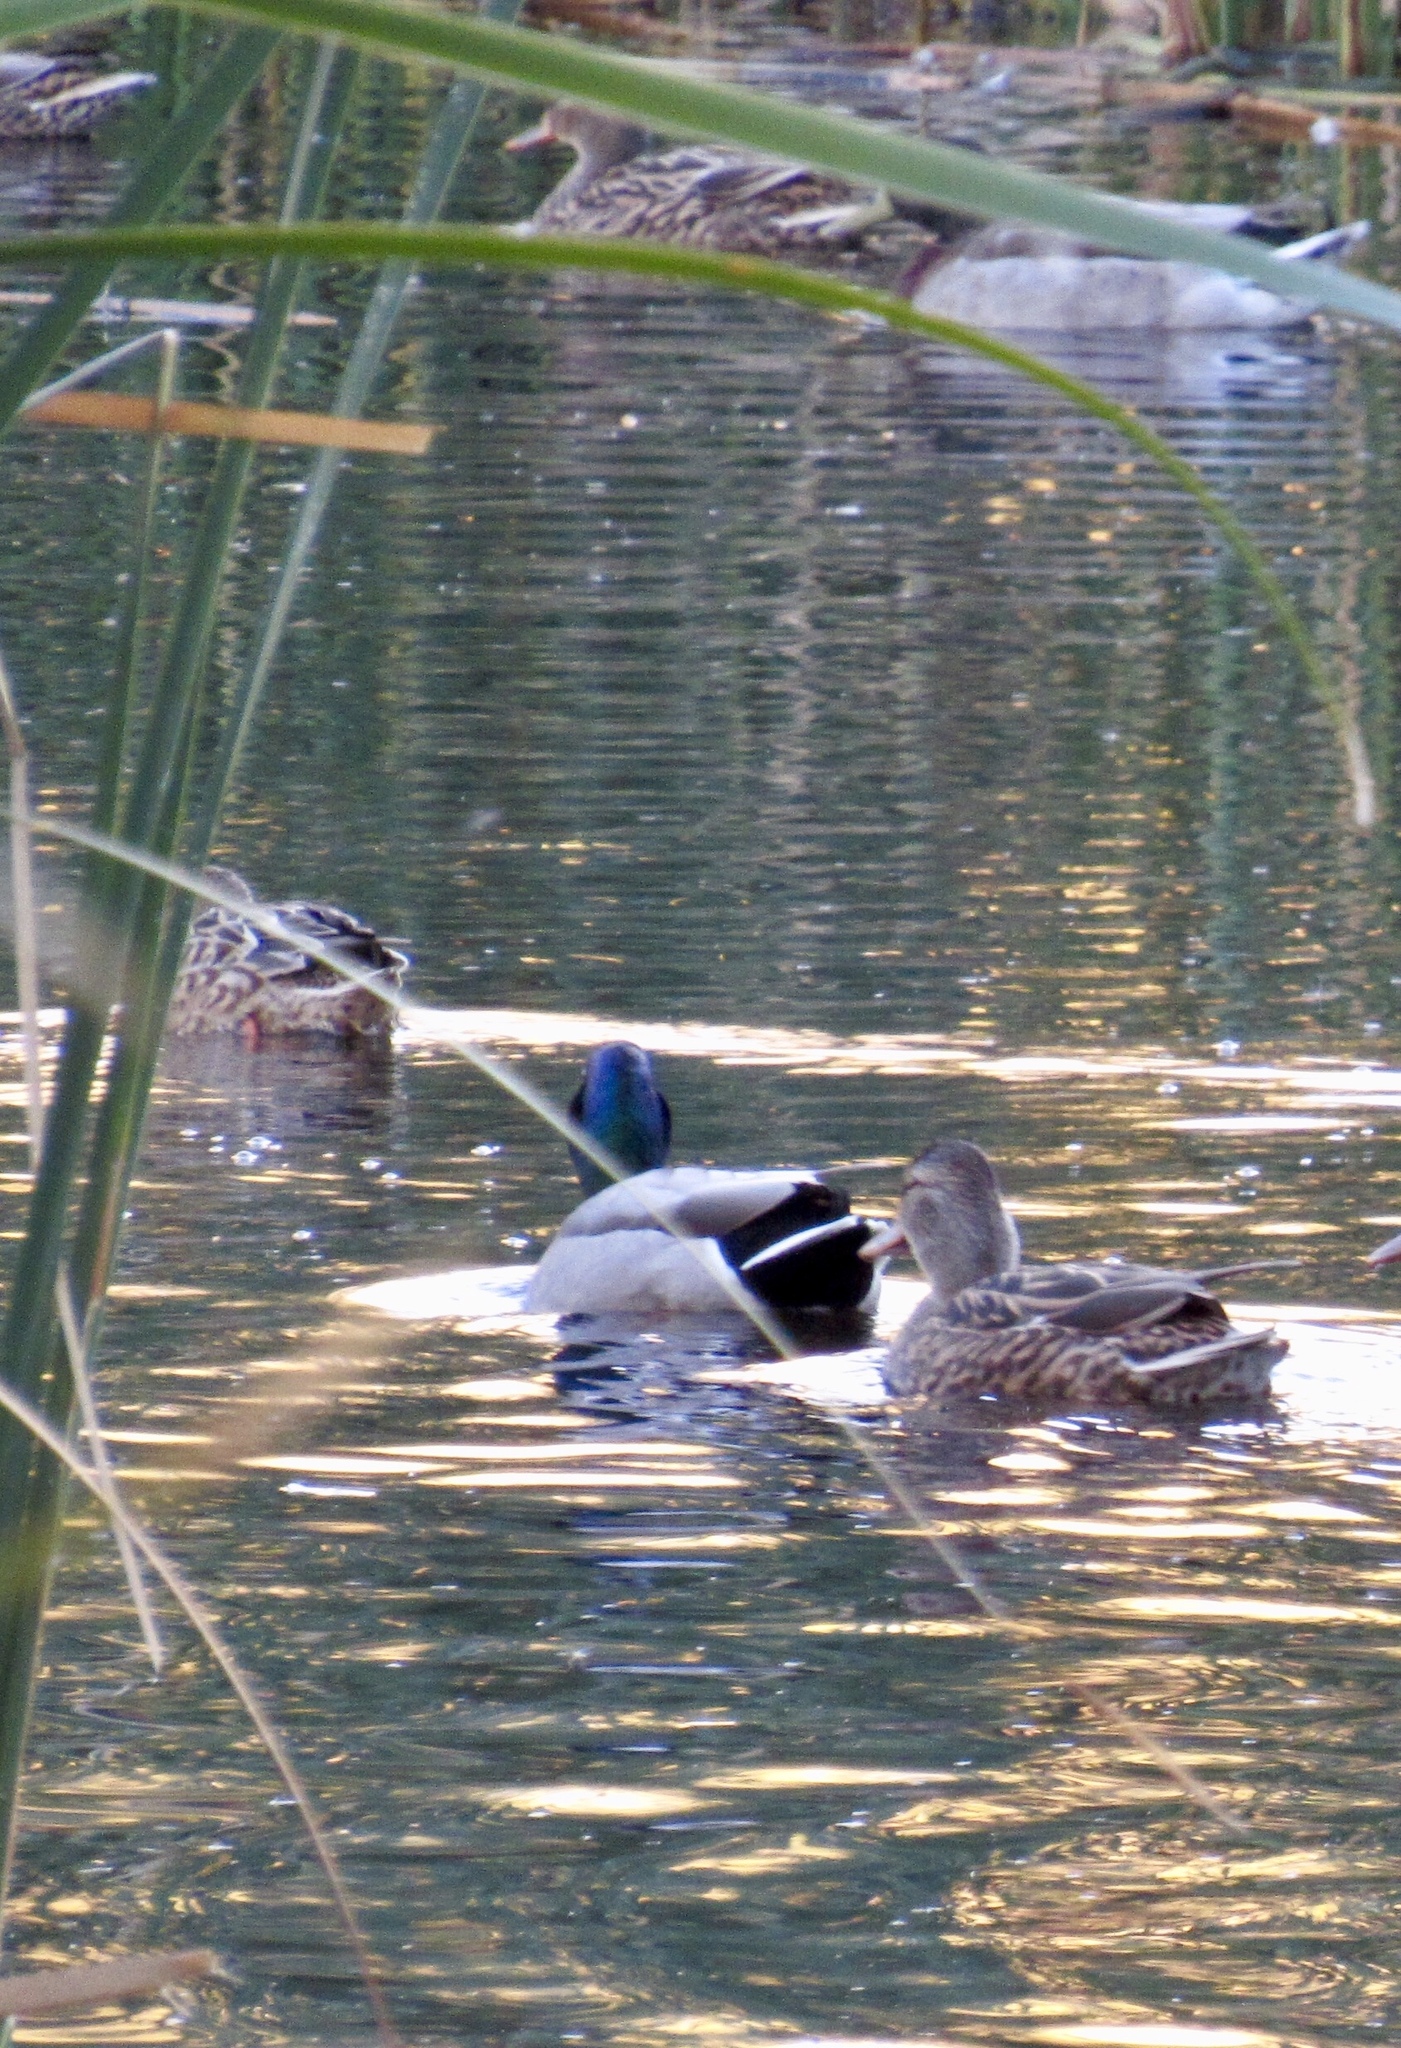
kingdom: Animalia
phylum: Chordata
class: Aves
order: Anseriformes
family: Anatidae
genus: Anas
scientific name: Anas platyrhynchos
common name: Mallard
